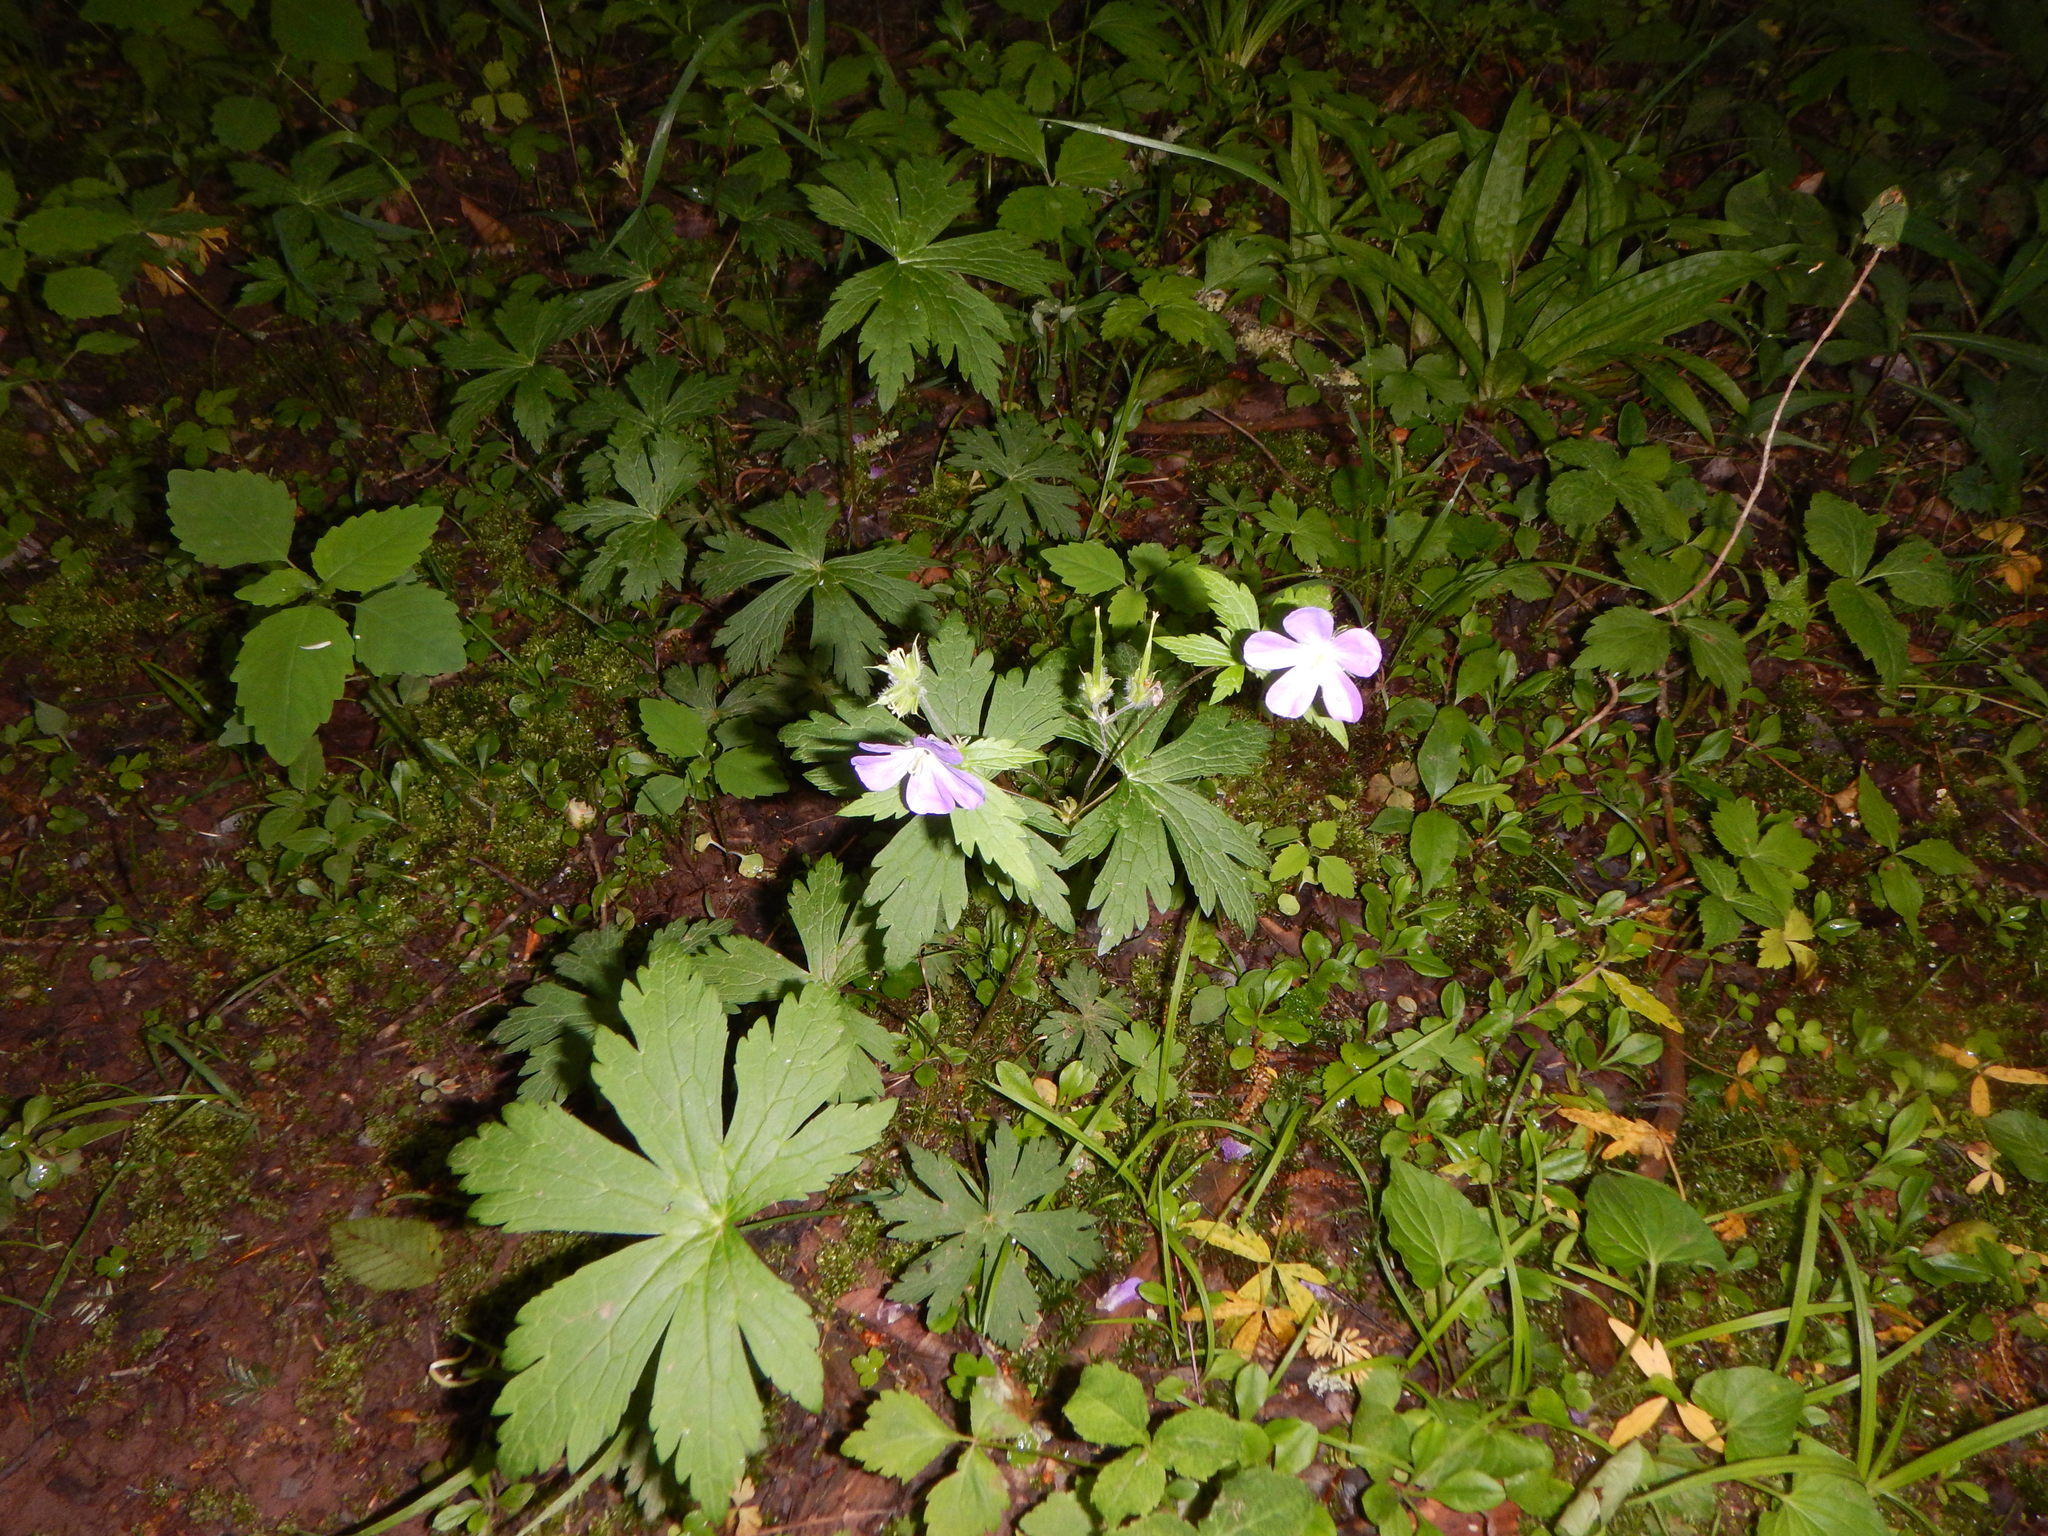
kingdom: Plantae
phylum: Tracheophyta
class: Magnoliopsida
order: Geraniales
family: Geraniaceae
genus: Geranium
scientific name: Geranium maculatum
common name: Spotted geranium
